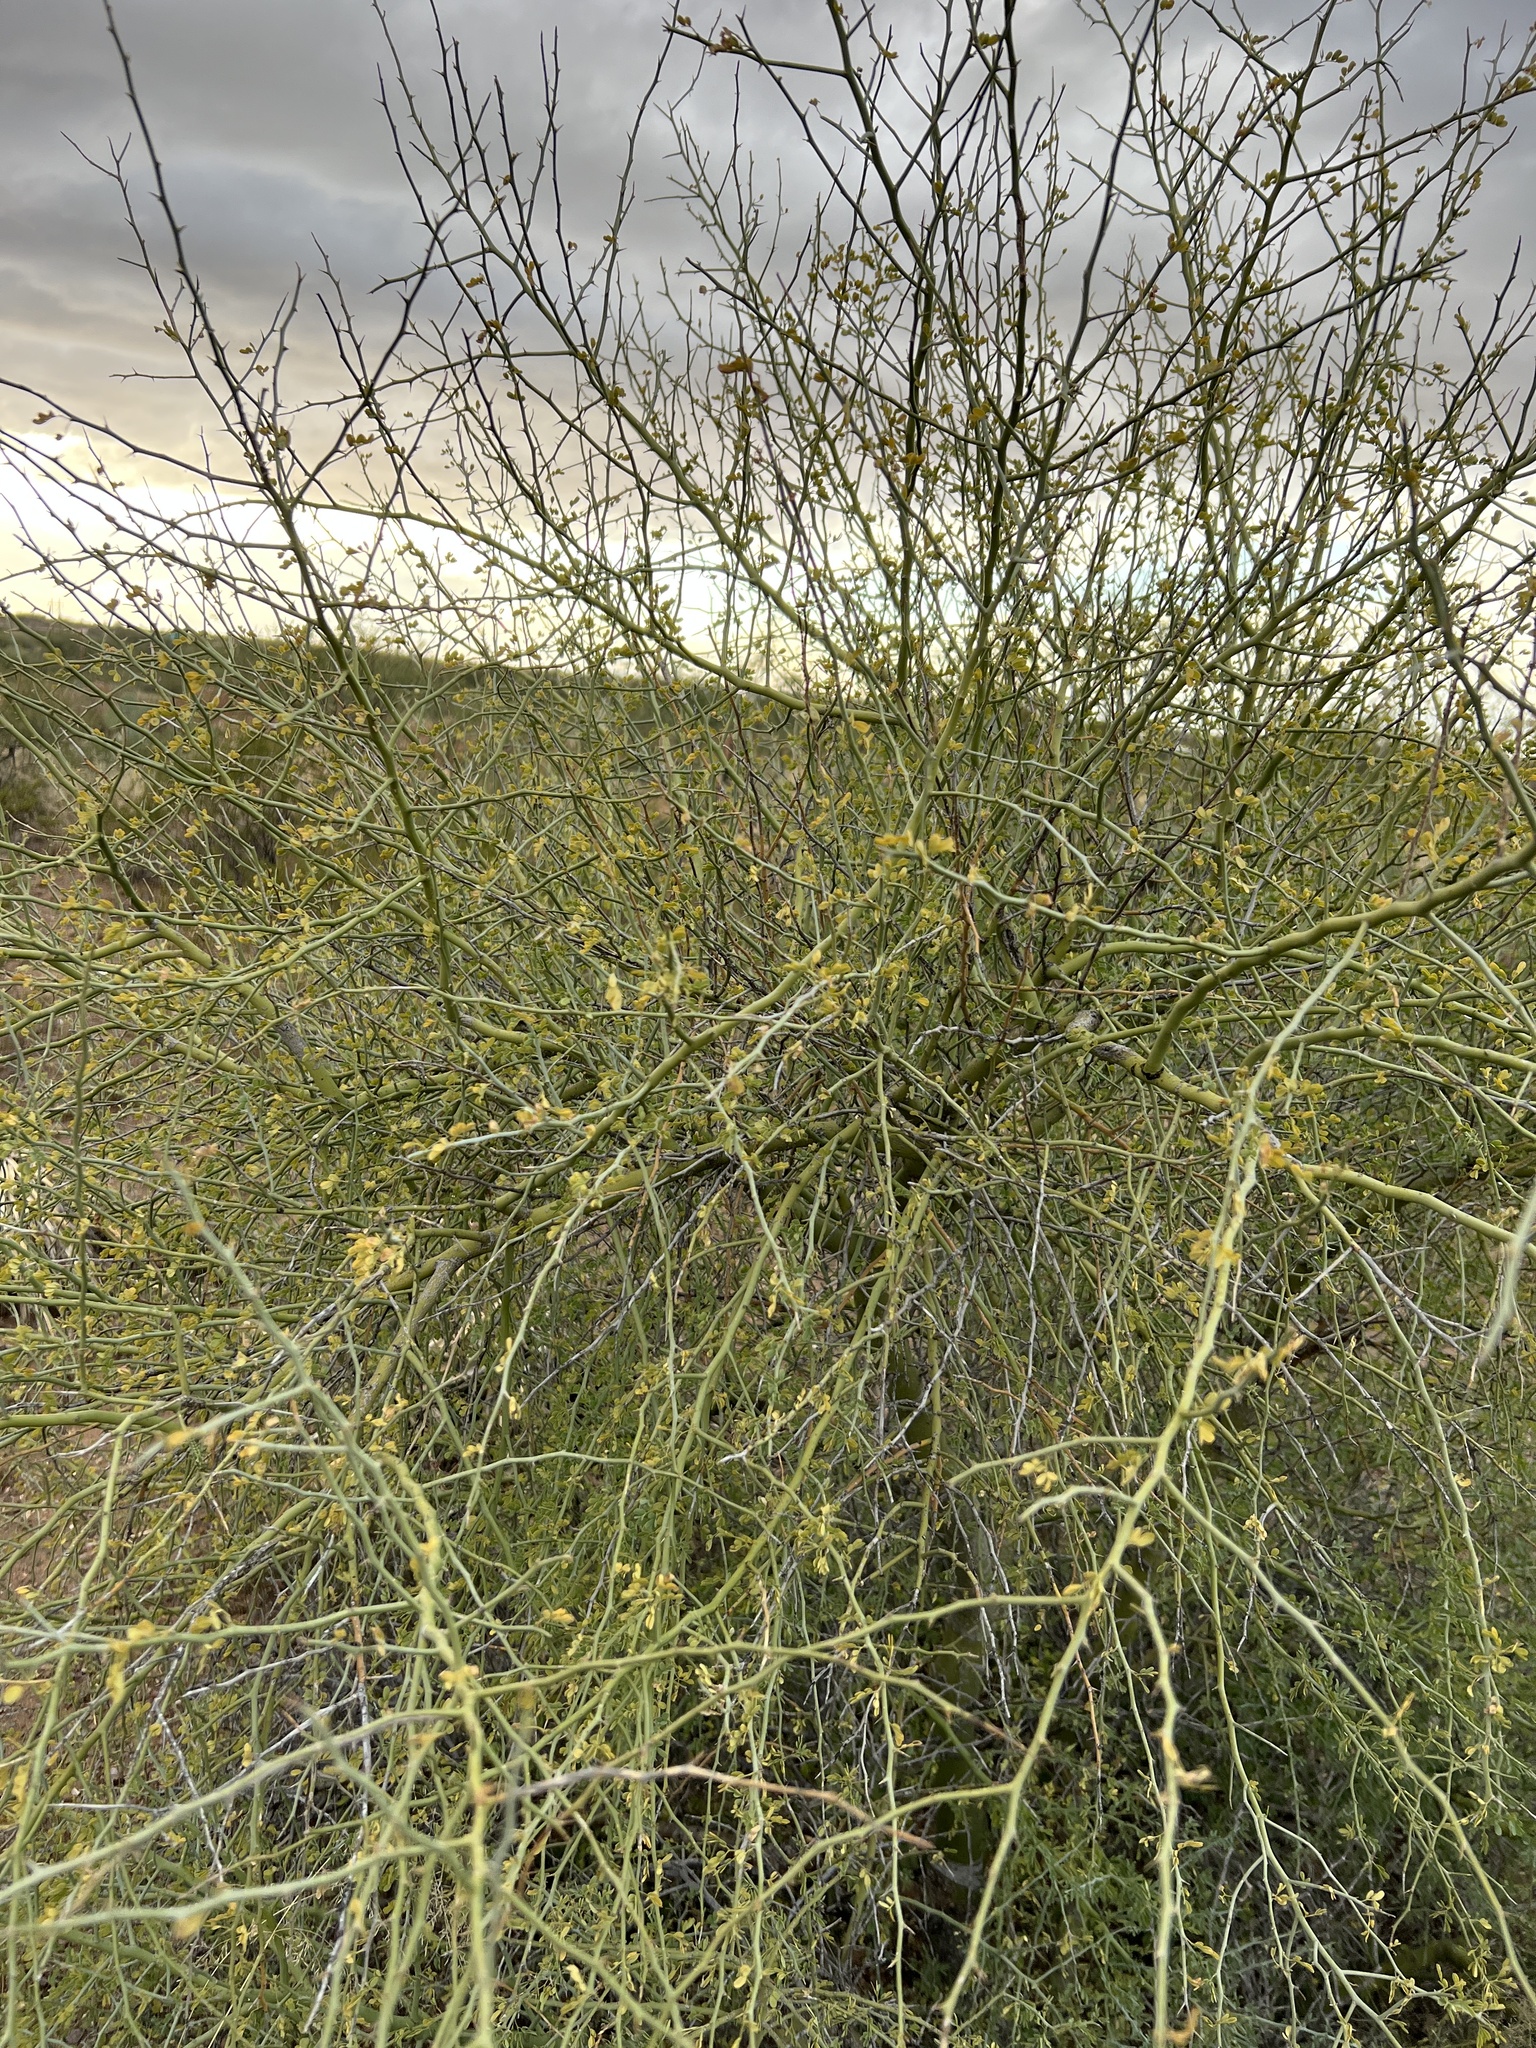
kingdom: Plantae
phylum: Tracheophyta
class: Magnoliopsida
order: Fabales
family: Fabaceae
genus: Parkinsonia
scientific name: Parkinsonia microphylla
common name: Yellow paloverde
